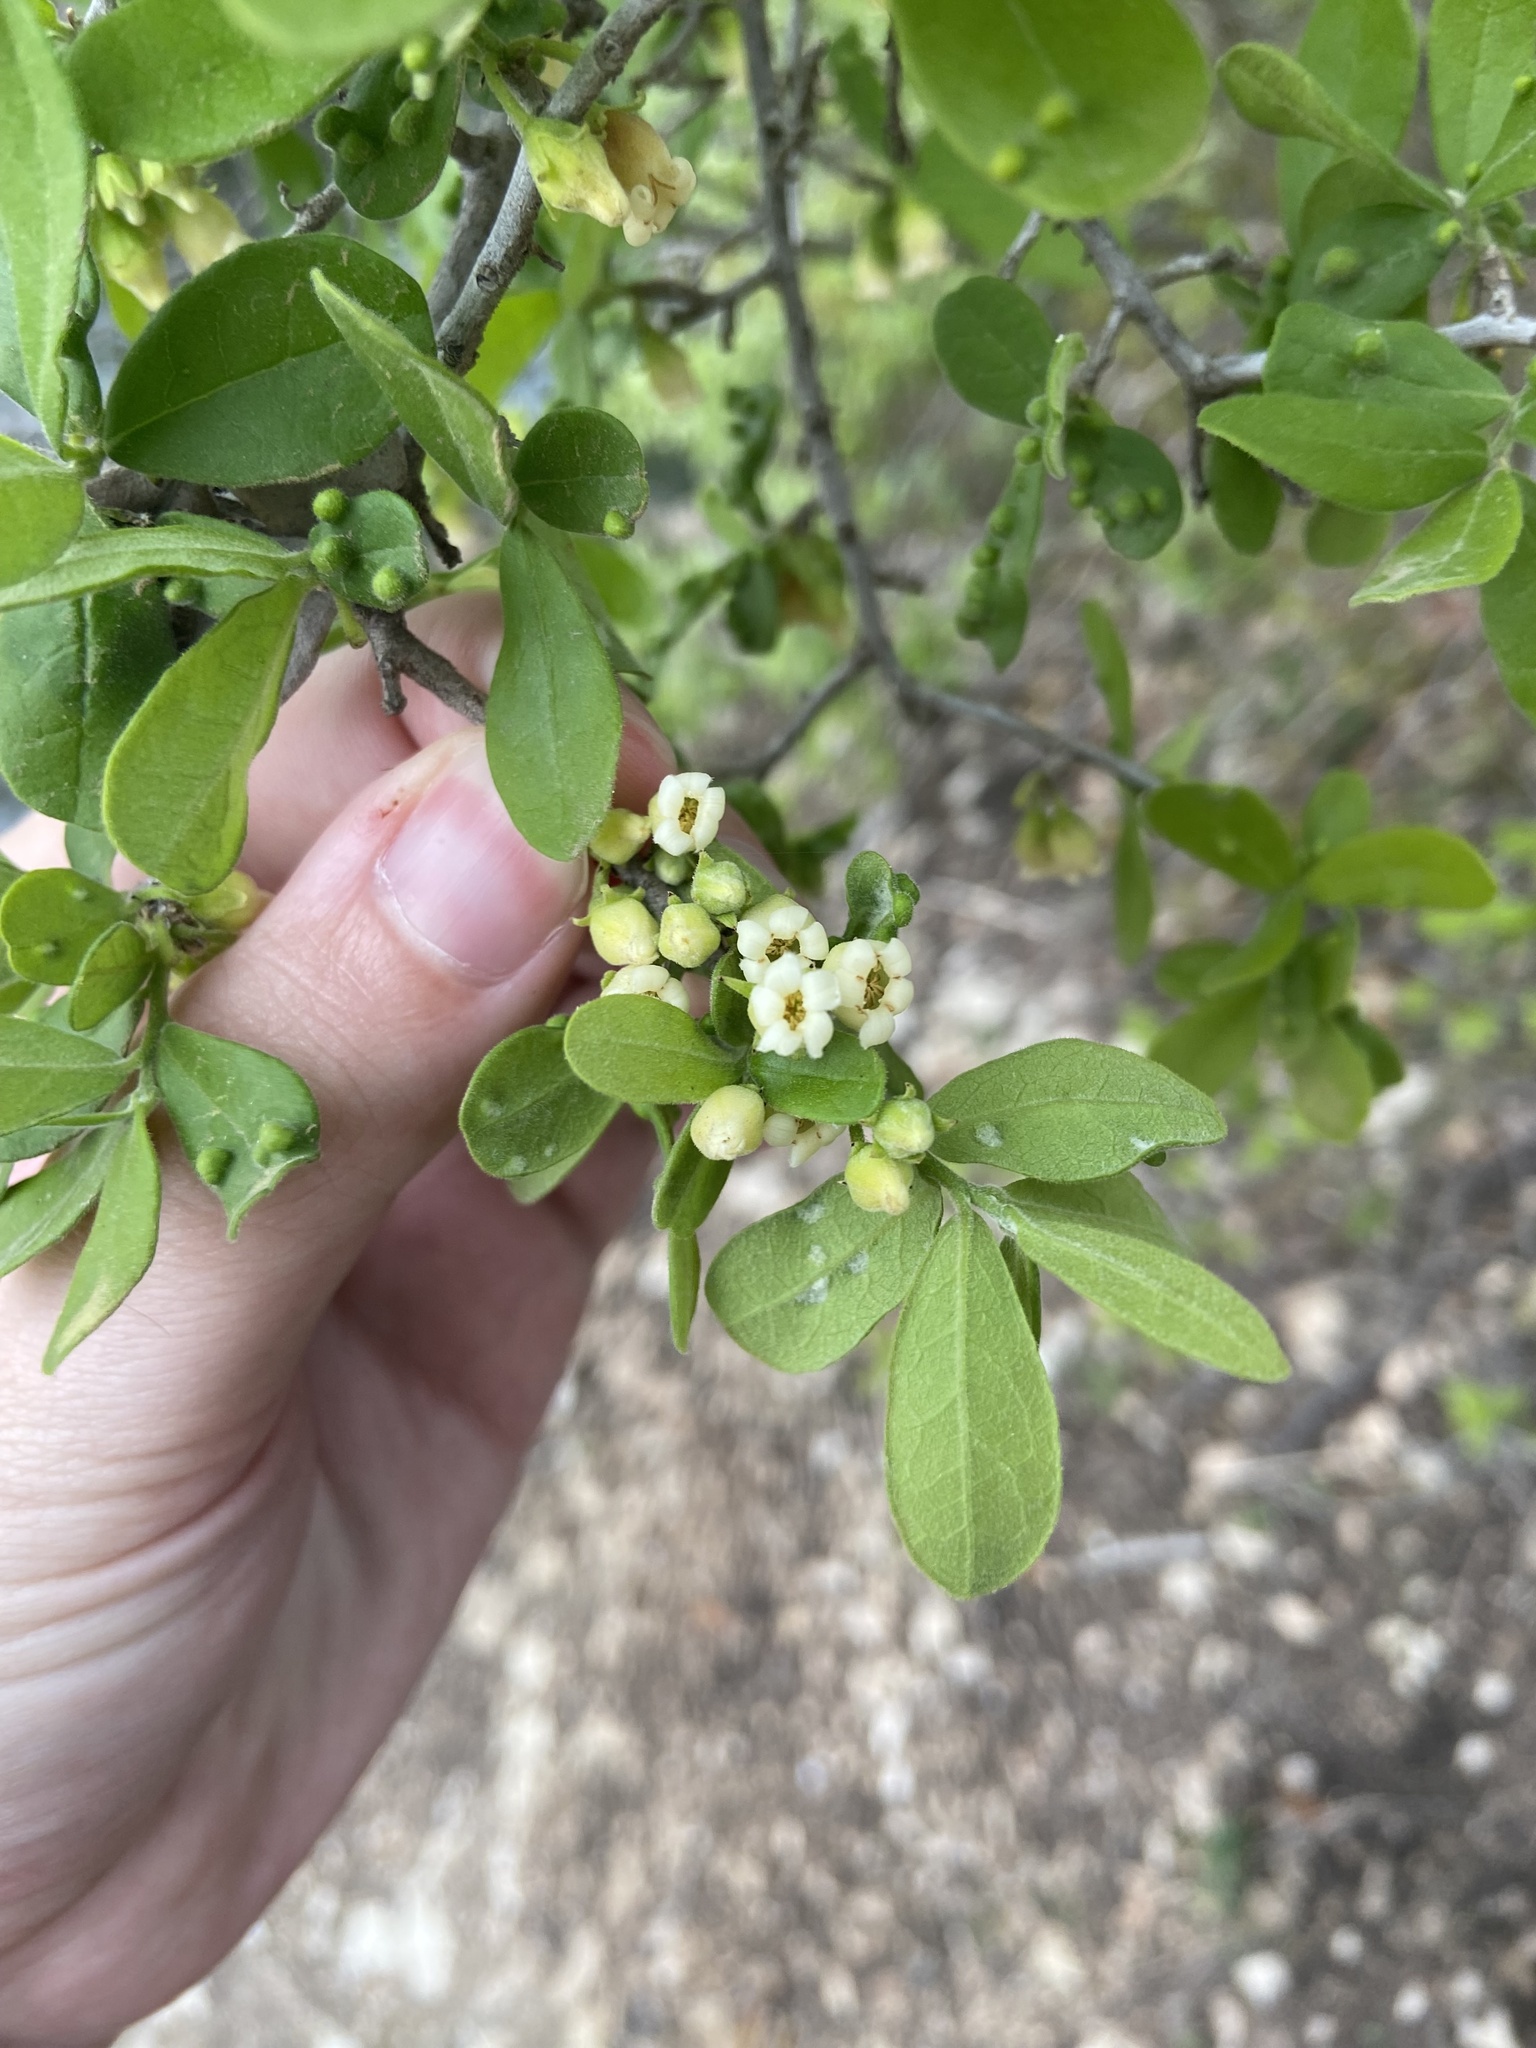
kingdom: Plantae
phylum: Tracheophyta
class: Magnoliopsida
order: Ericales
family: Ebenaceae
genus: Diospyros
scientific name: Diospyros texana
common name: Texas persimmon
